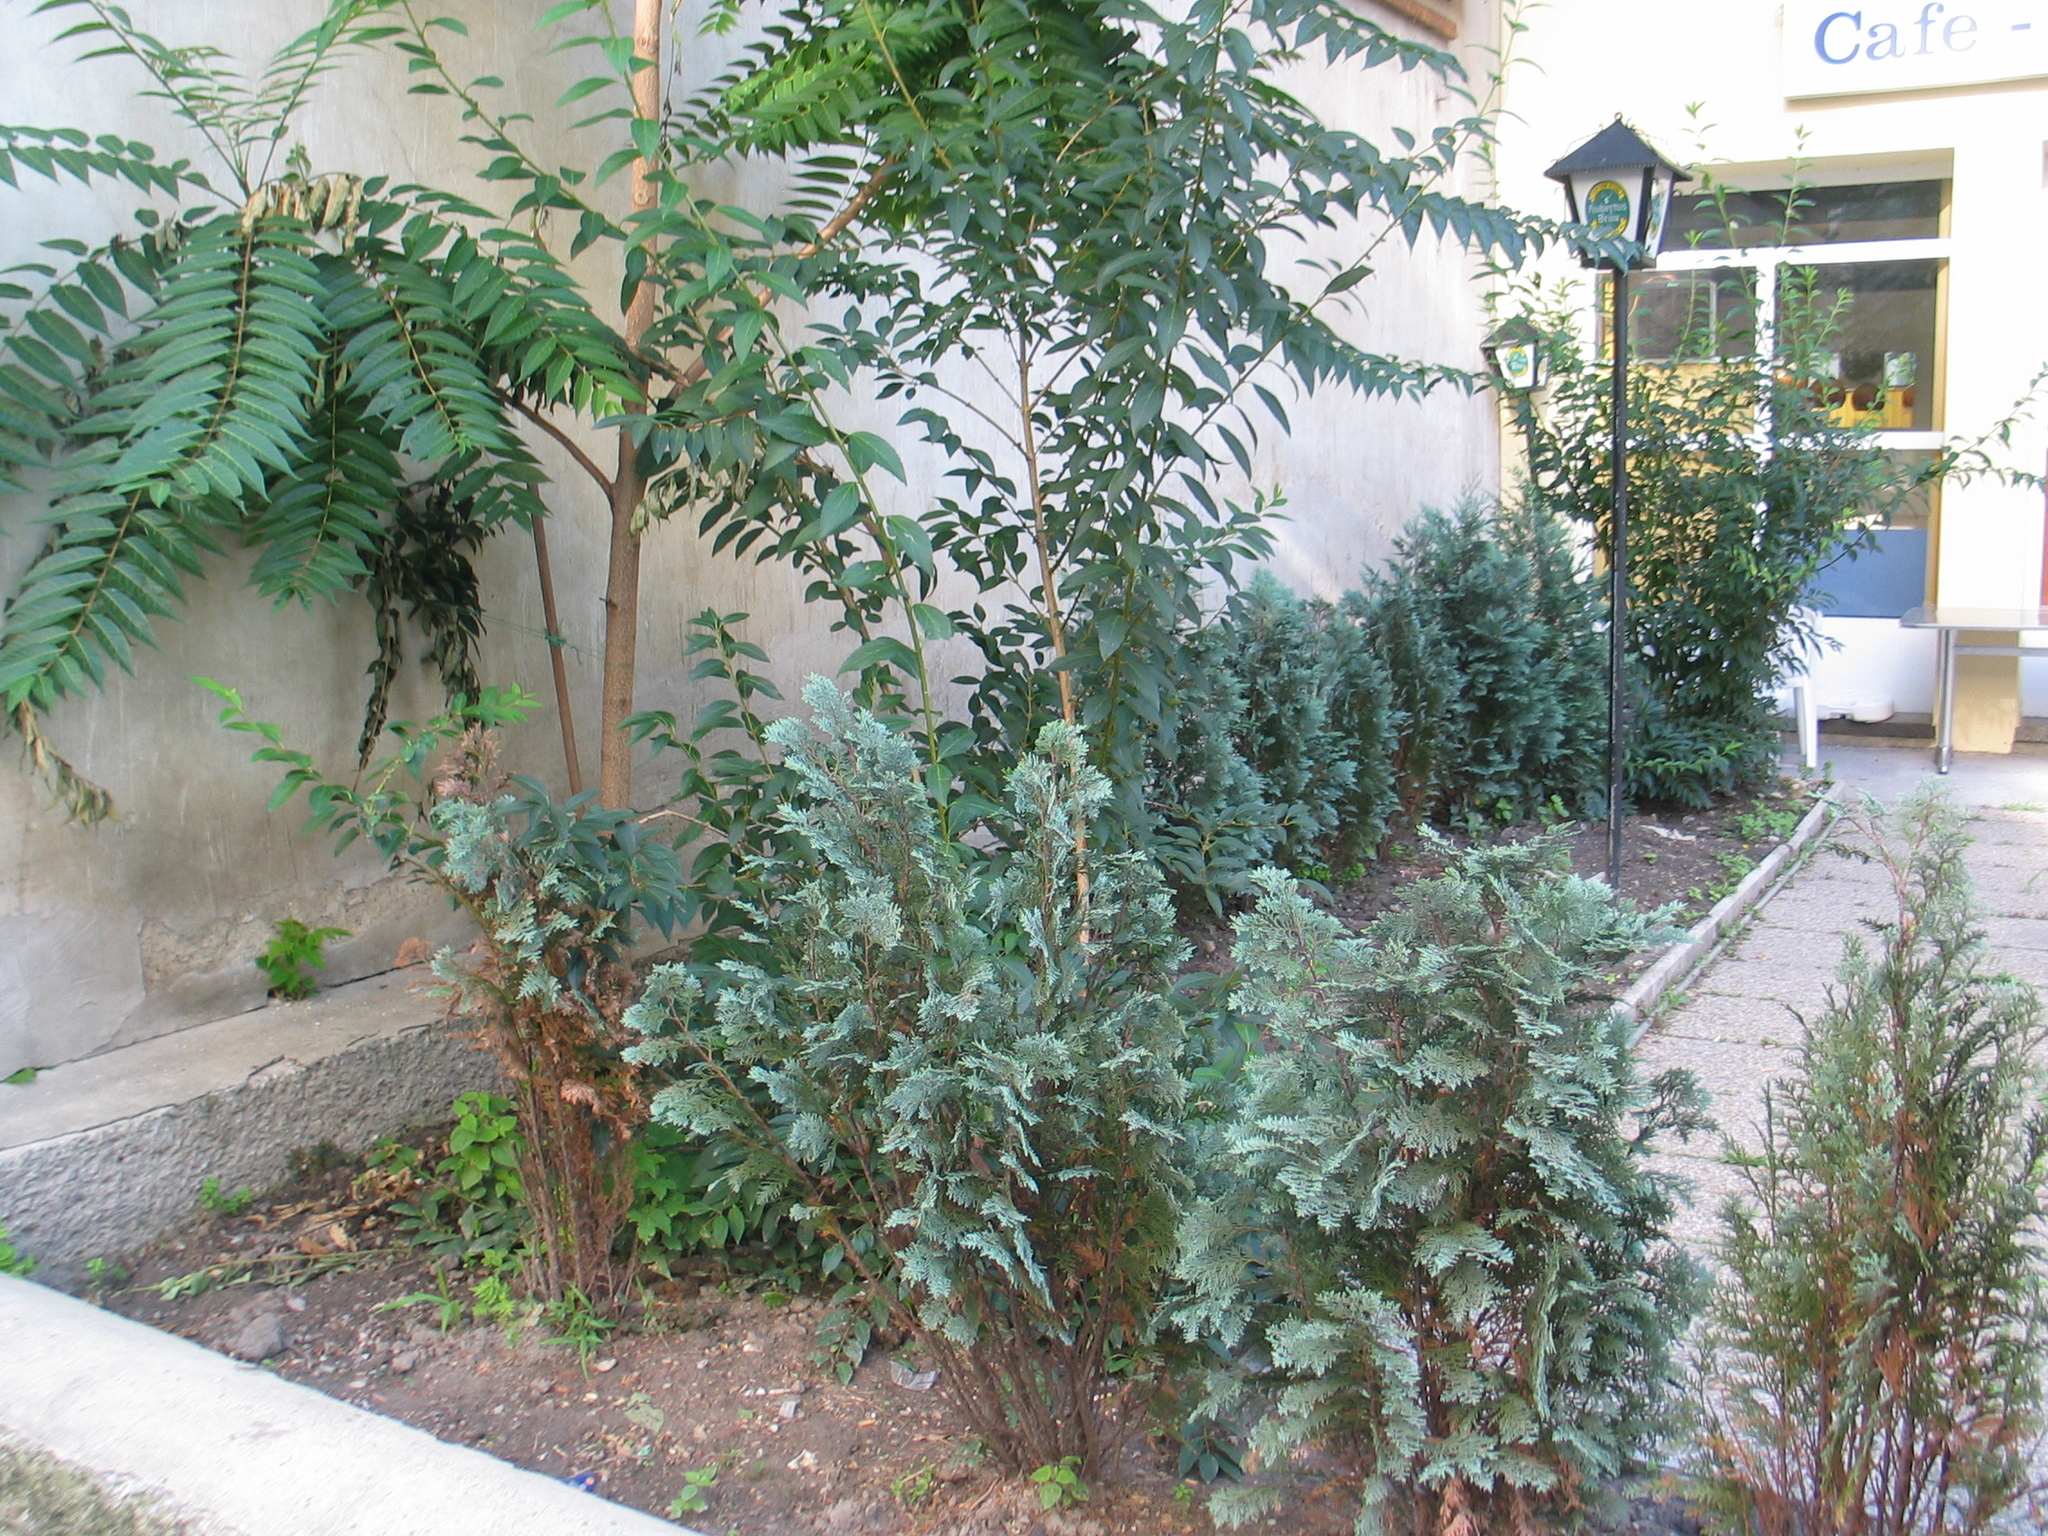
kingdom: Plantae
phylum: Tracheophyta
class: Magnoliopsida
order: Sapindales
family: Simaroubaceae
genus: Ailanthus
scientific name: Ailanthus altissima
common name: Tree-of-heaven
